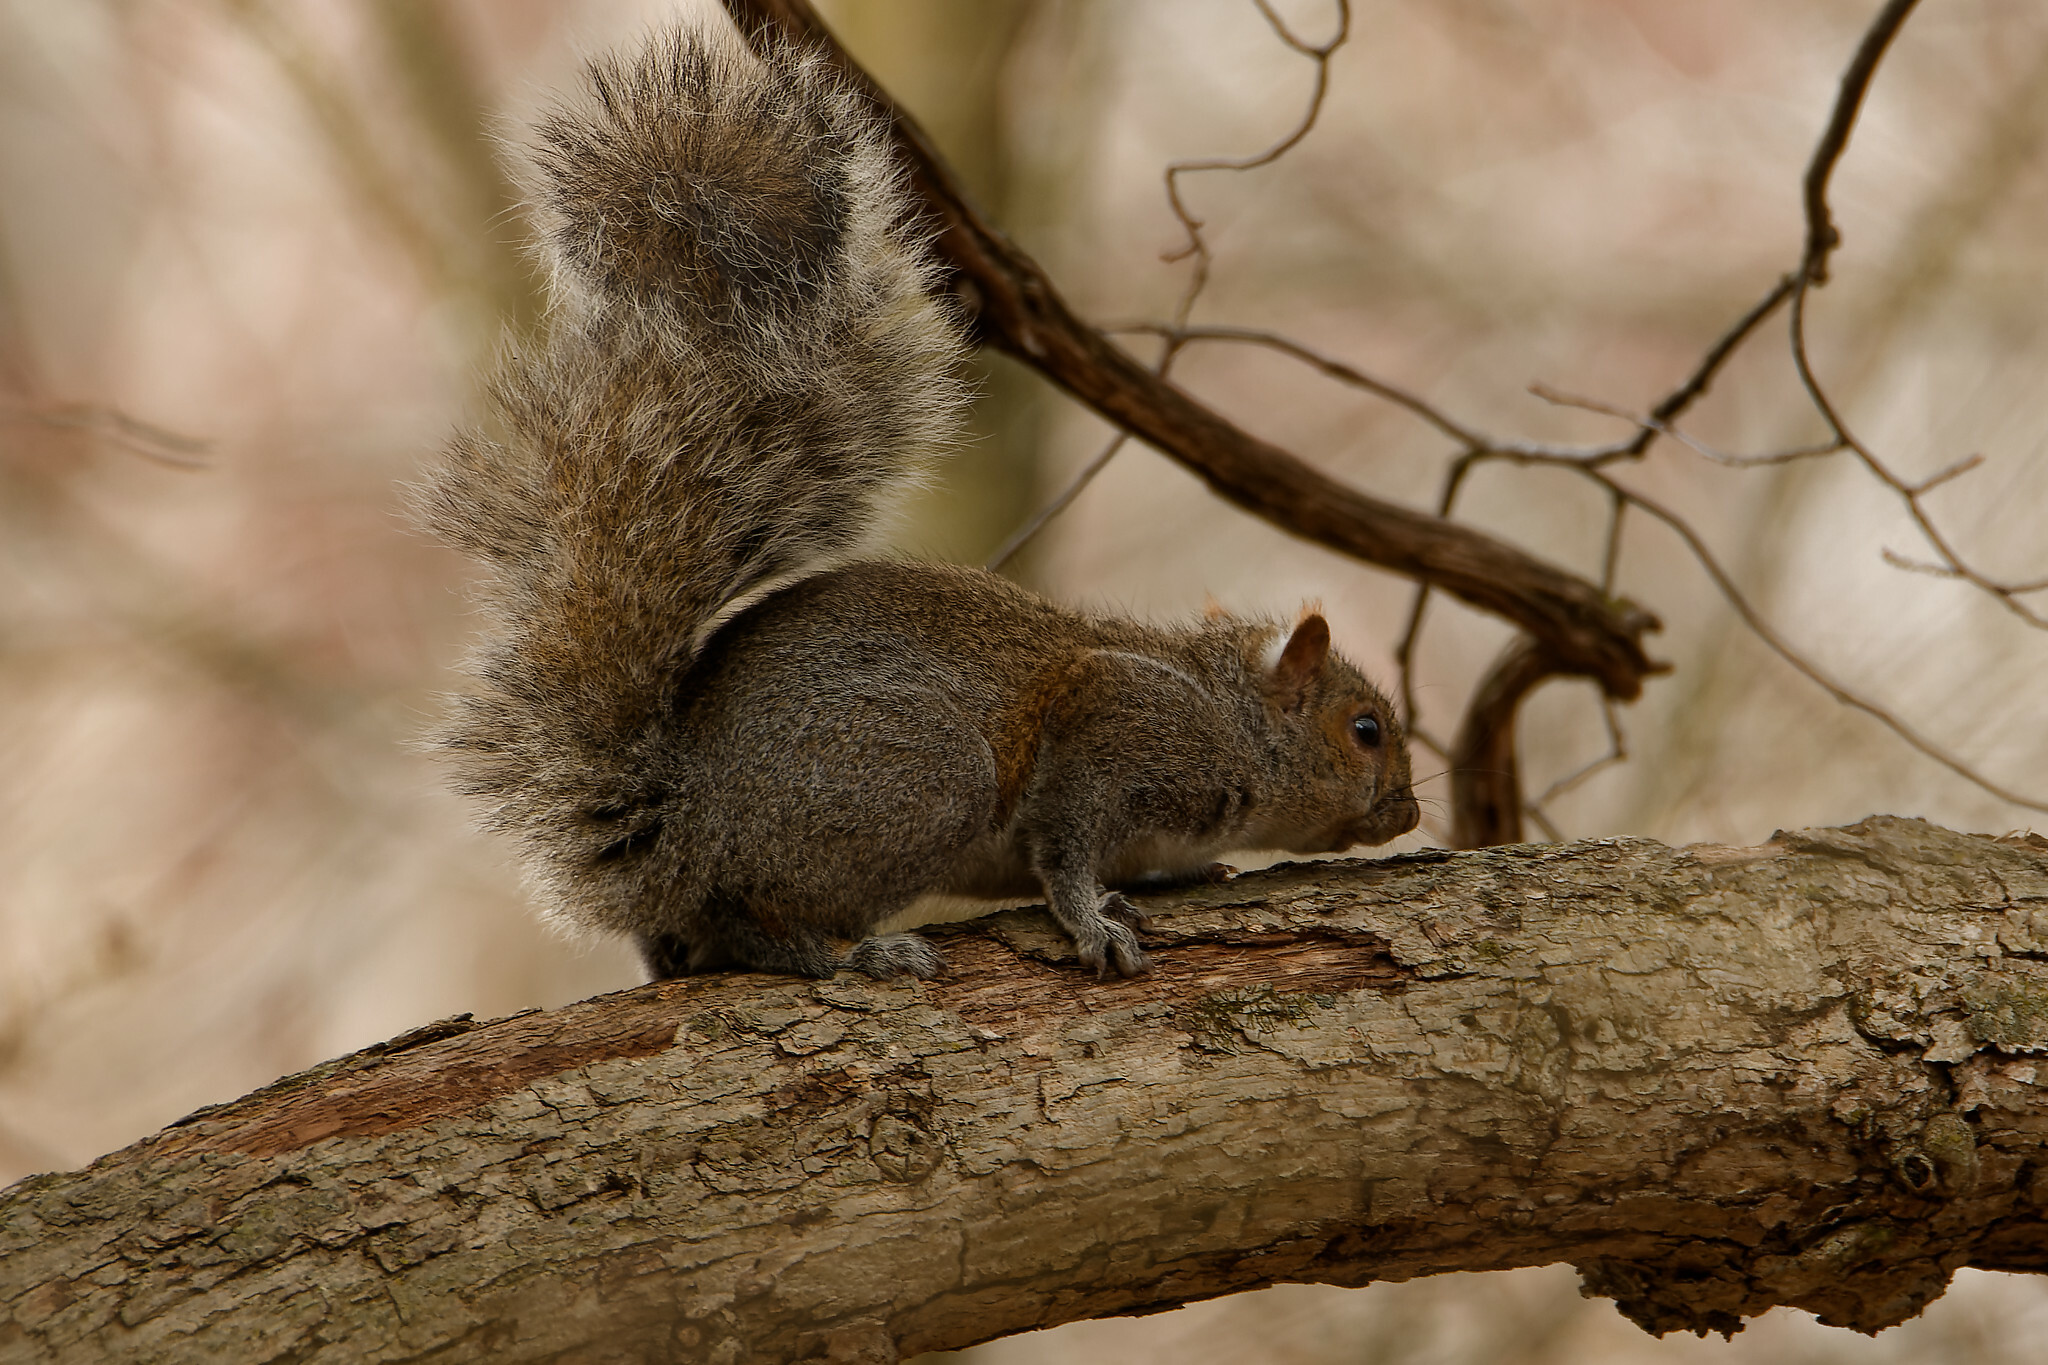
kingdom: Animalia
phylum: Chordata
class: Mammalia
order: Rodentia
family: Sciuridae
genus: Sciurus
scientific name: Sciurus carolinensis
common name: Eastern gray squirrel
